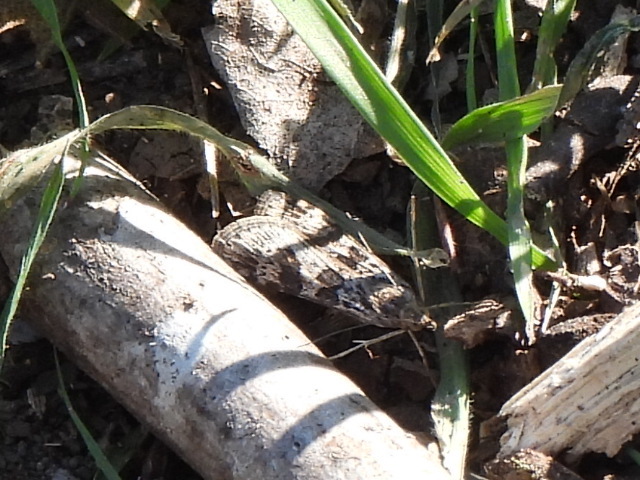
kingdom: Animalia
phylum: Arthropoda
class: Insecta
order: Lepidoptera
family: Crambidae
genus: Nomophila
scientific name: Nomophila nearctica
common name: American rush veneer
